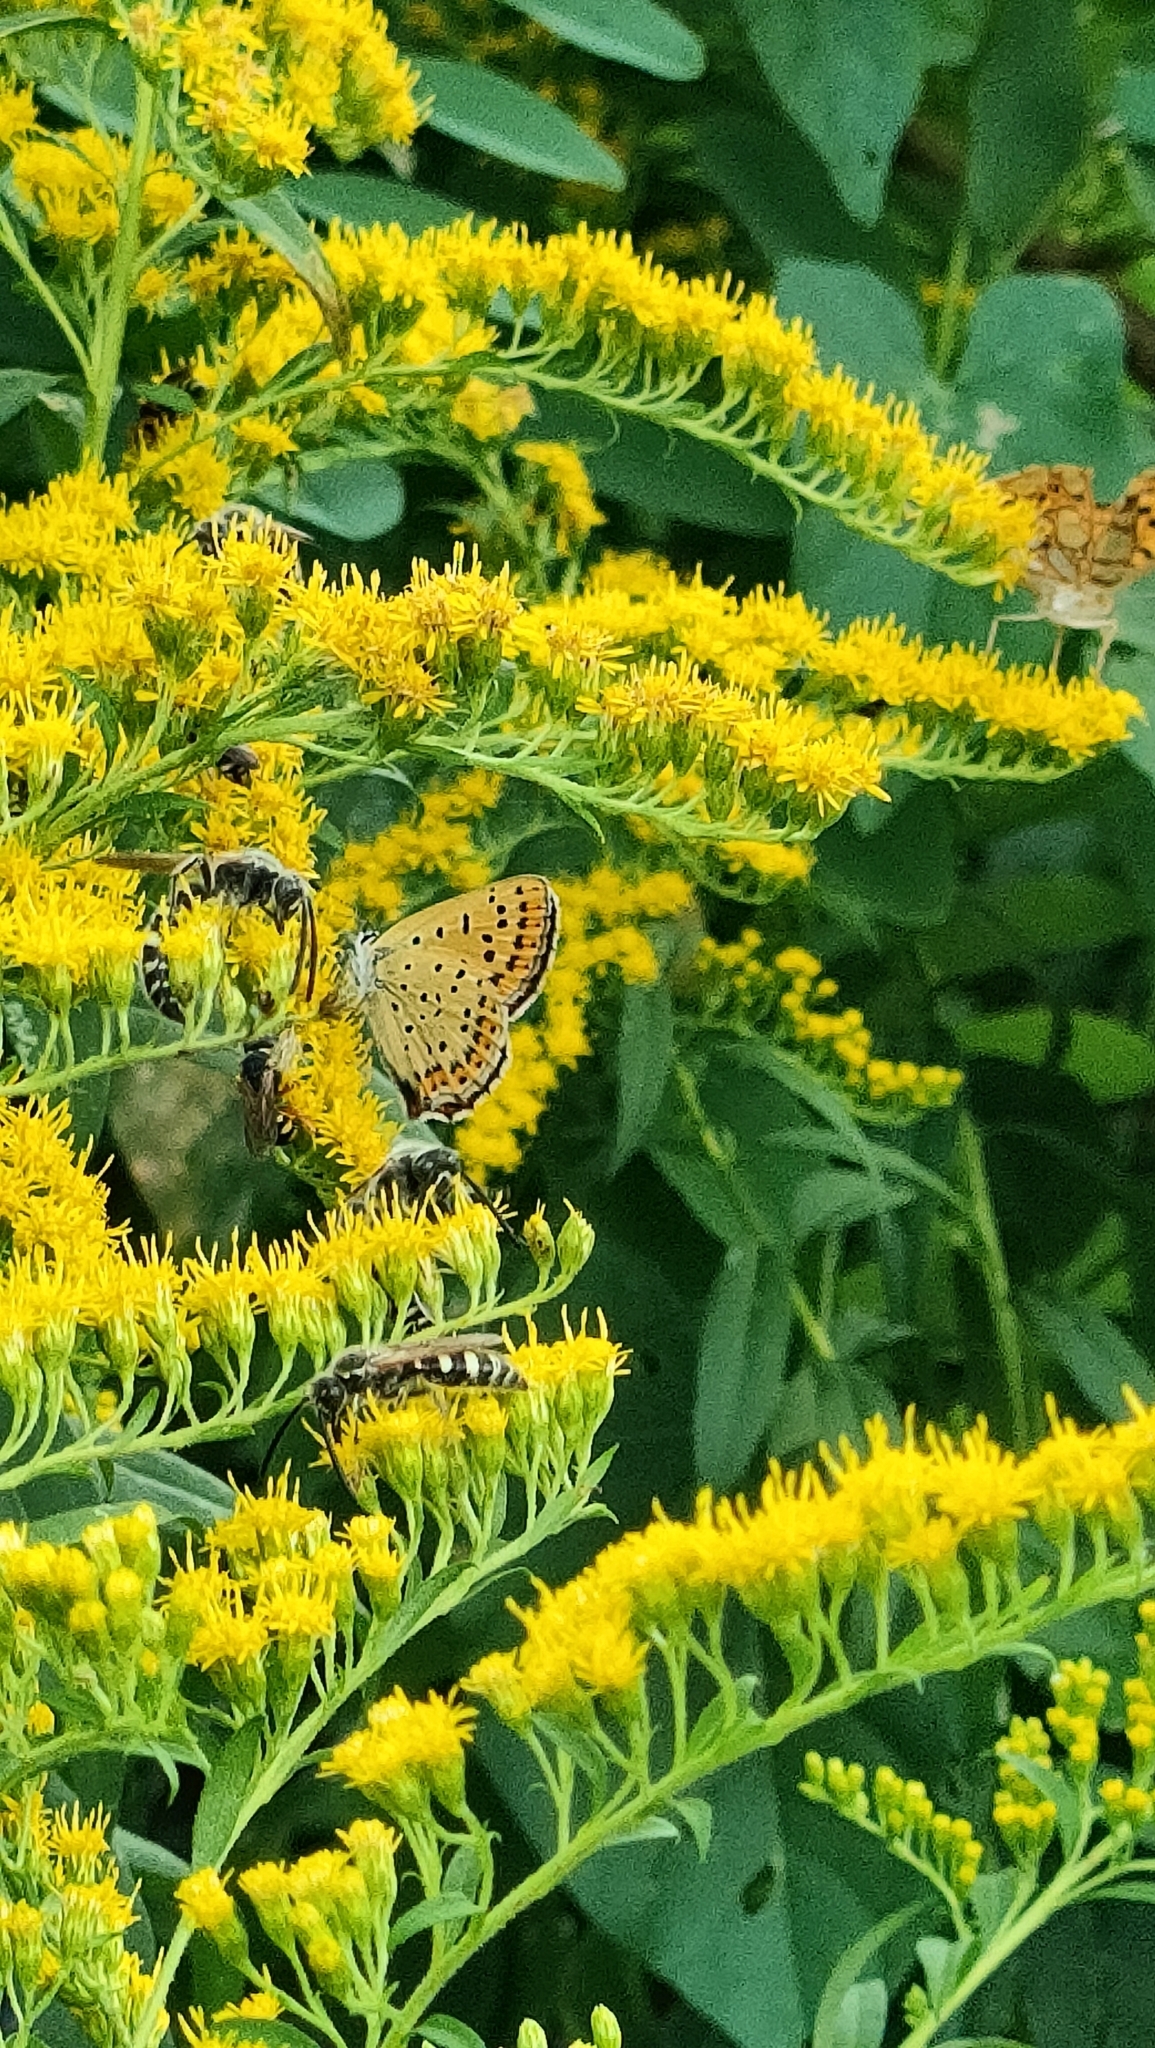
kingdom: Animalia
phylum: Arthropoda
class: Insecta
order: Lepidoptera
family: Lycaenidae
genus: Loweia
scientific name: Loweia tityrus
